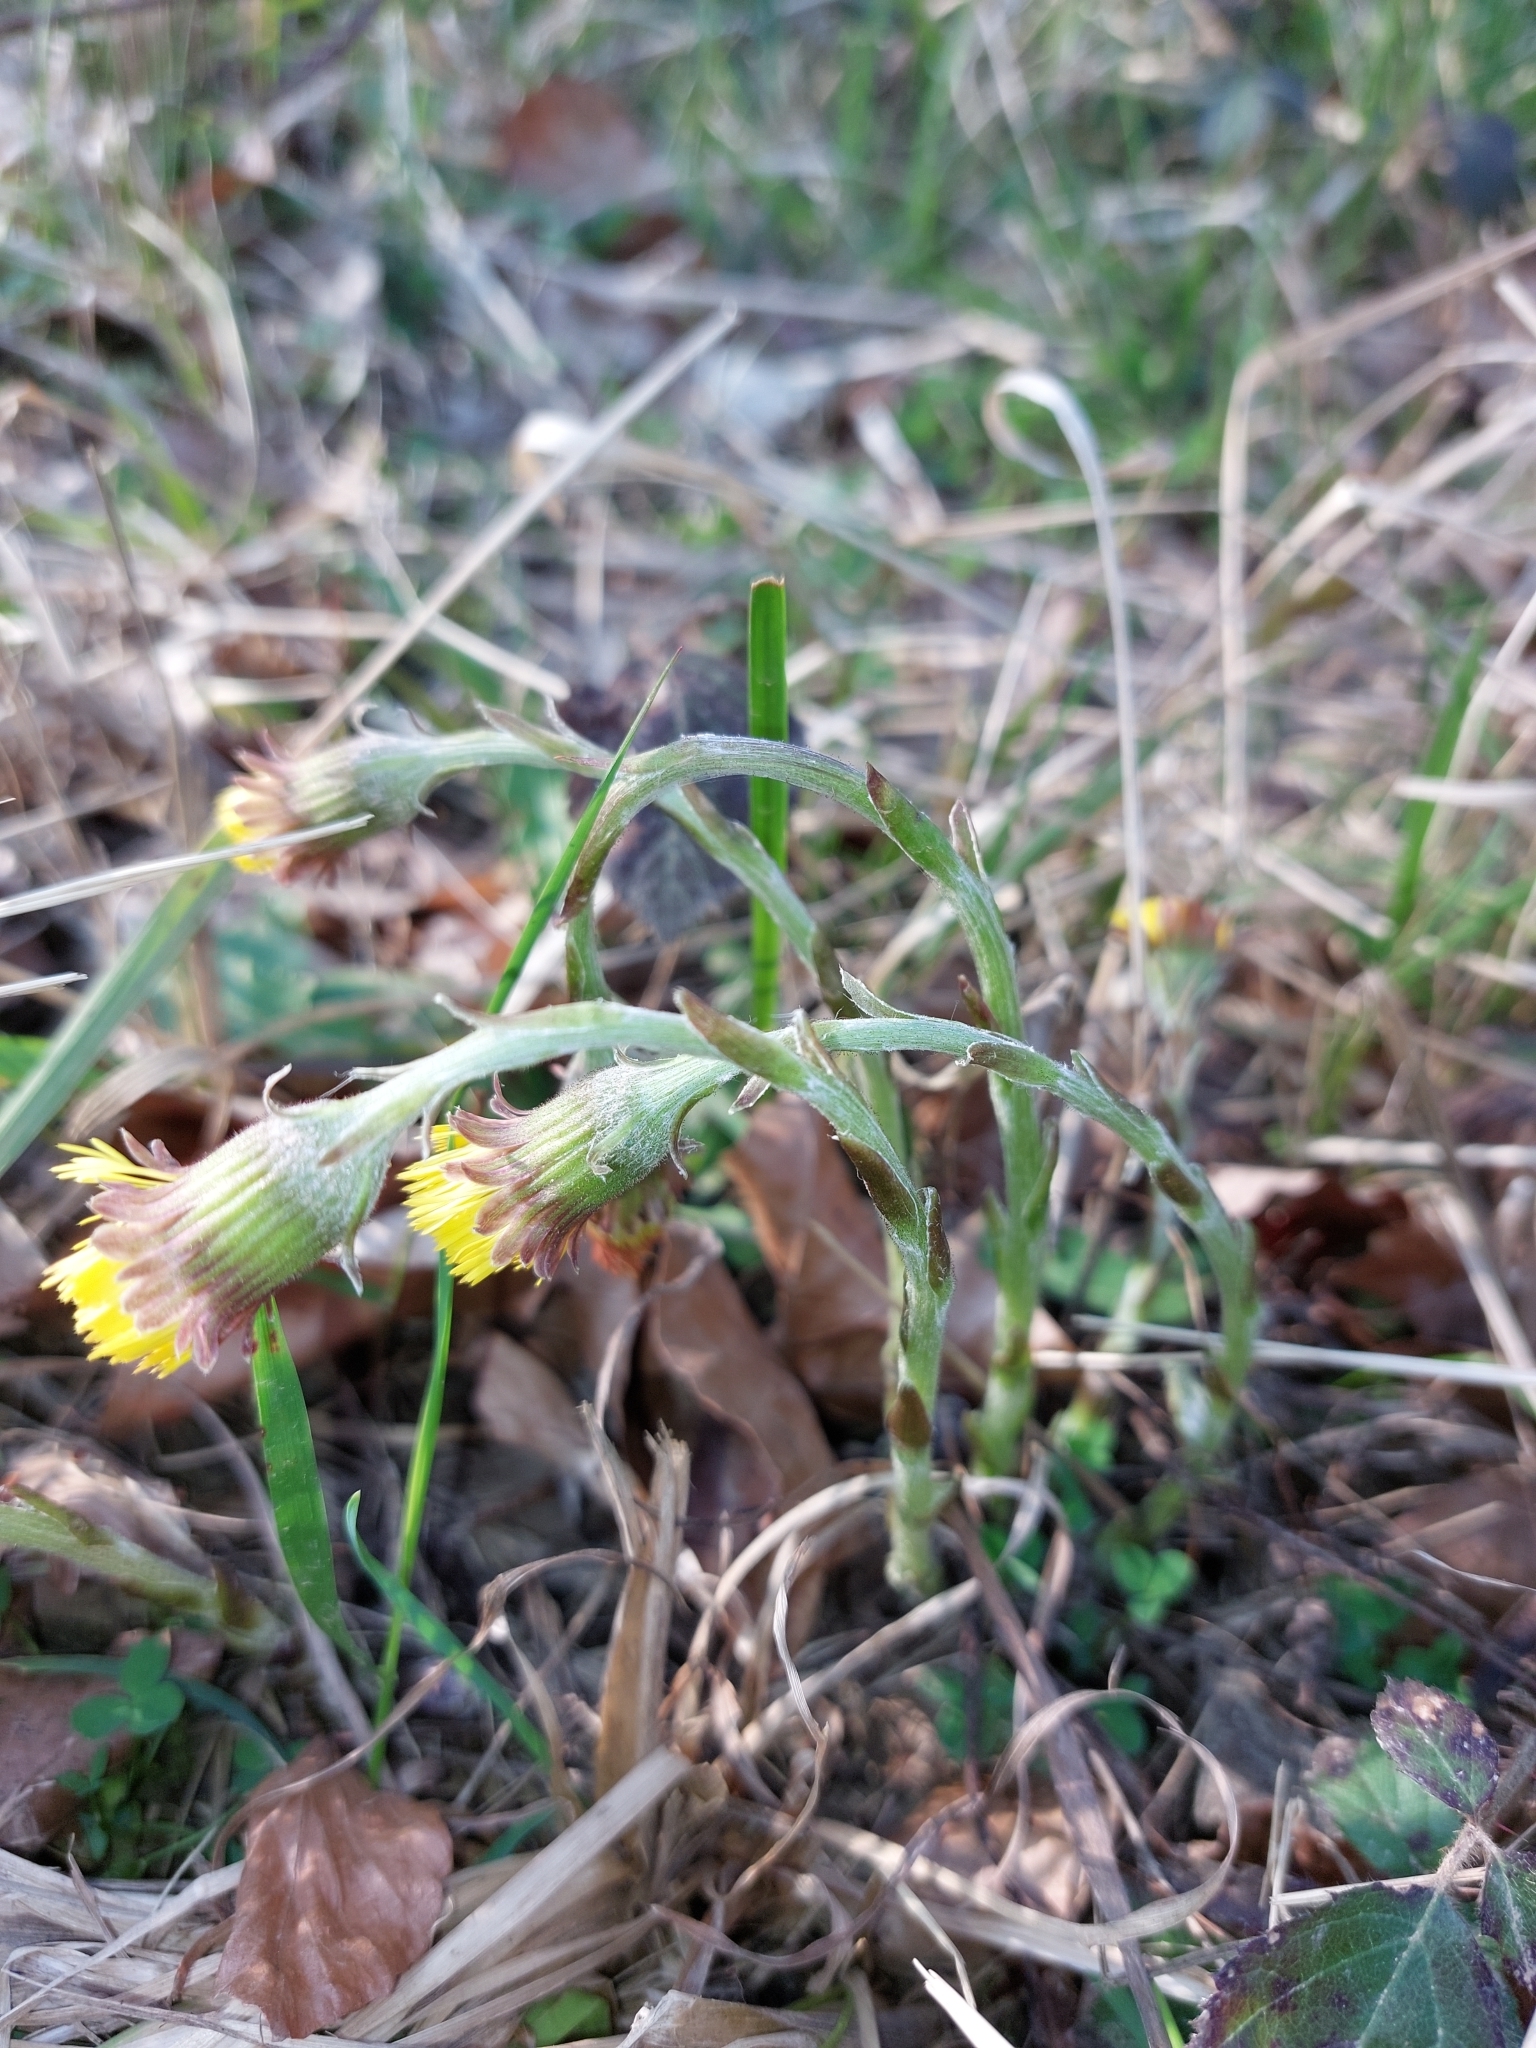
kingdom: Plantae
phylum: Tracheophyta
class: Magnoliopsida
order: Asterales
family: Asteraceae
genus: Tussilago
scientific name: Tussilago farfara
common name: Coltsfoot
